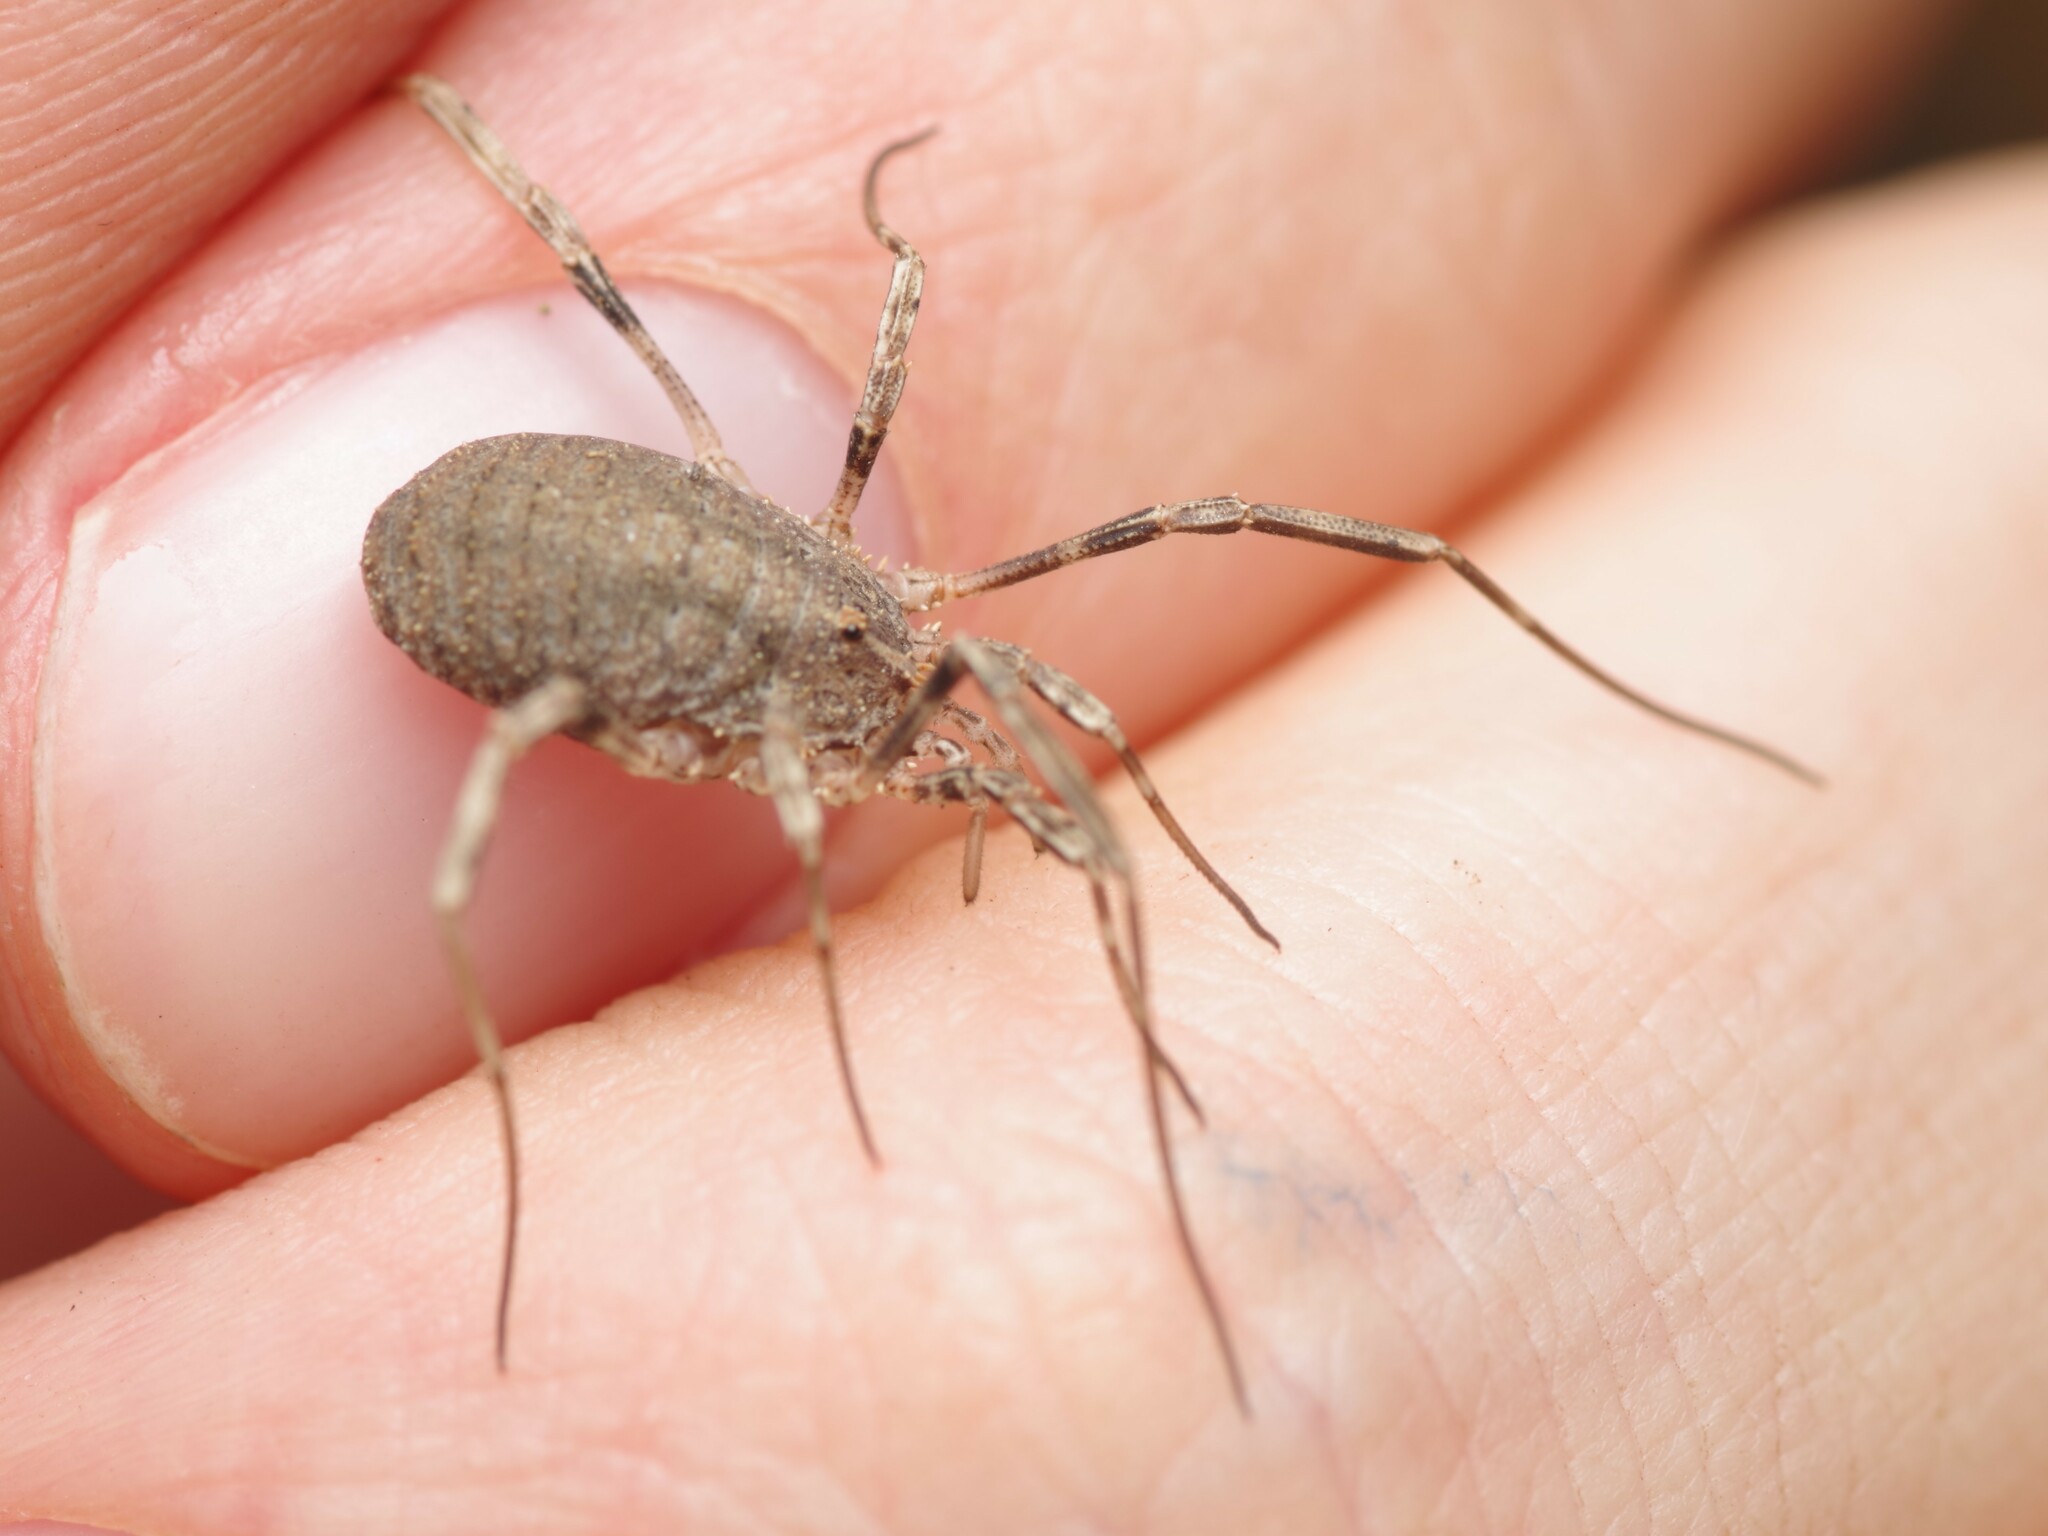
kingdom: Animalia
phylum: Arthropoda
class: Arachnida
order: Opiliones
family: Phalangiidae
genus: Odiellus
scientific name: Odiellus troguloides
